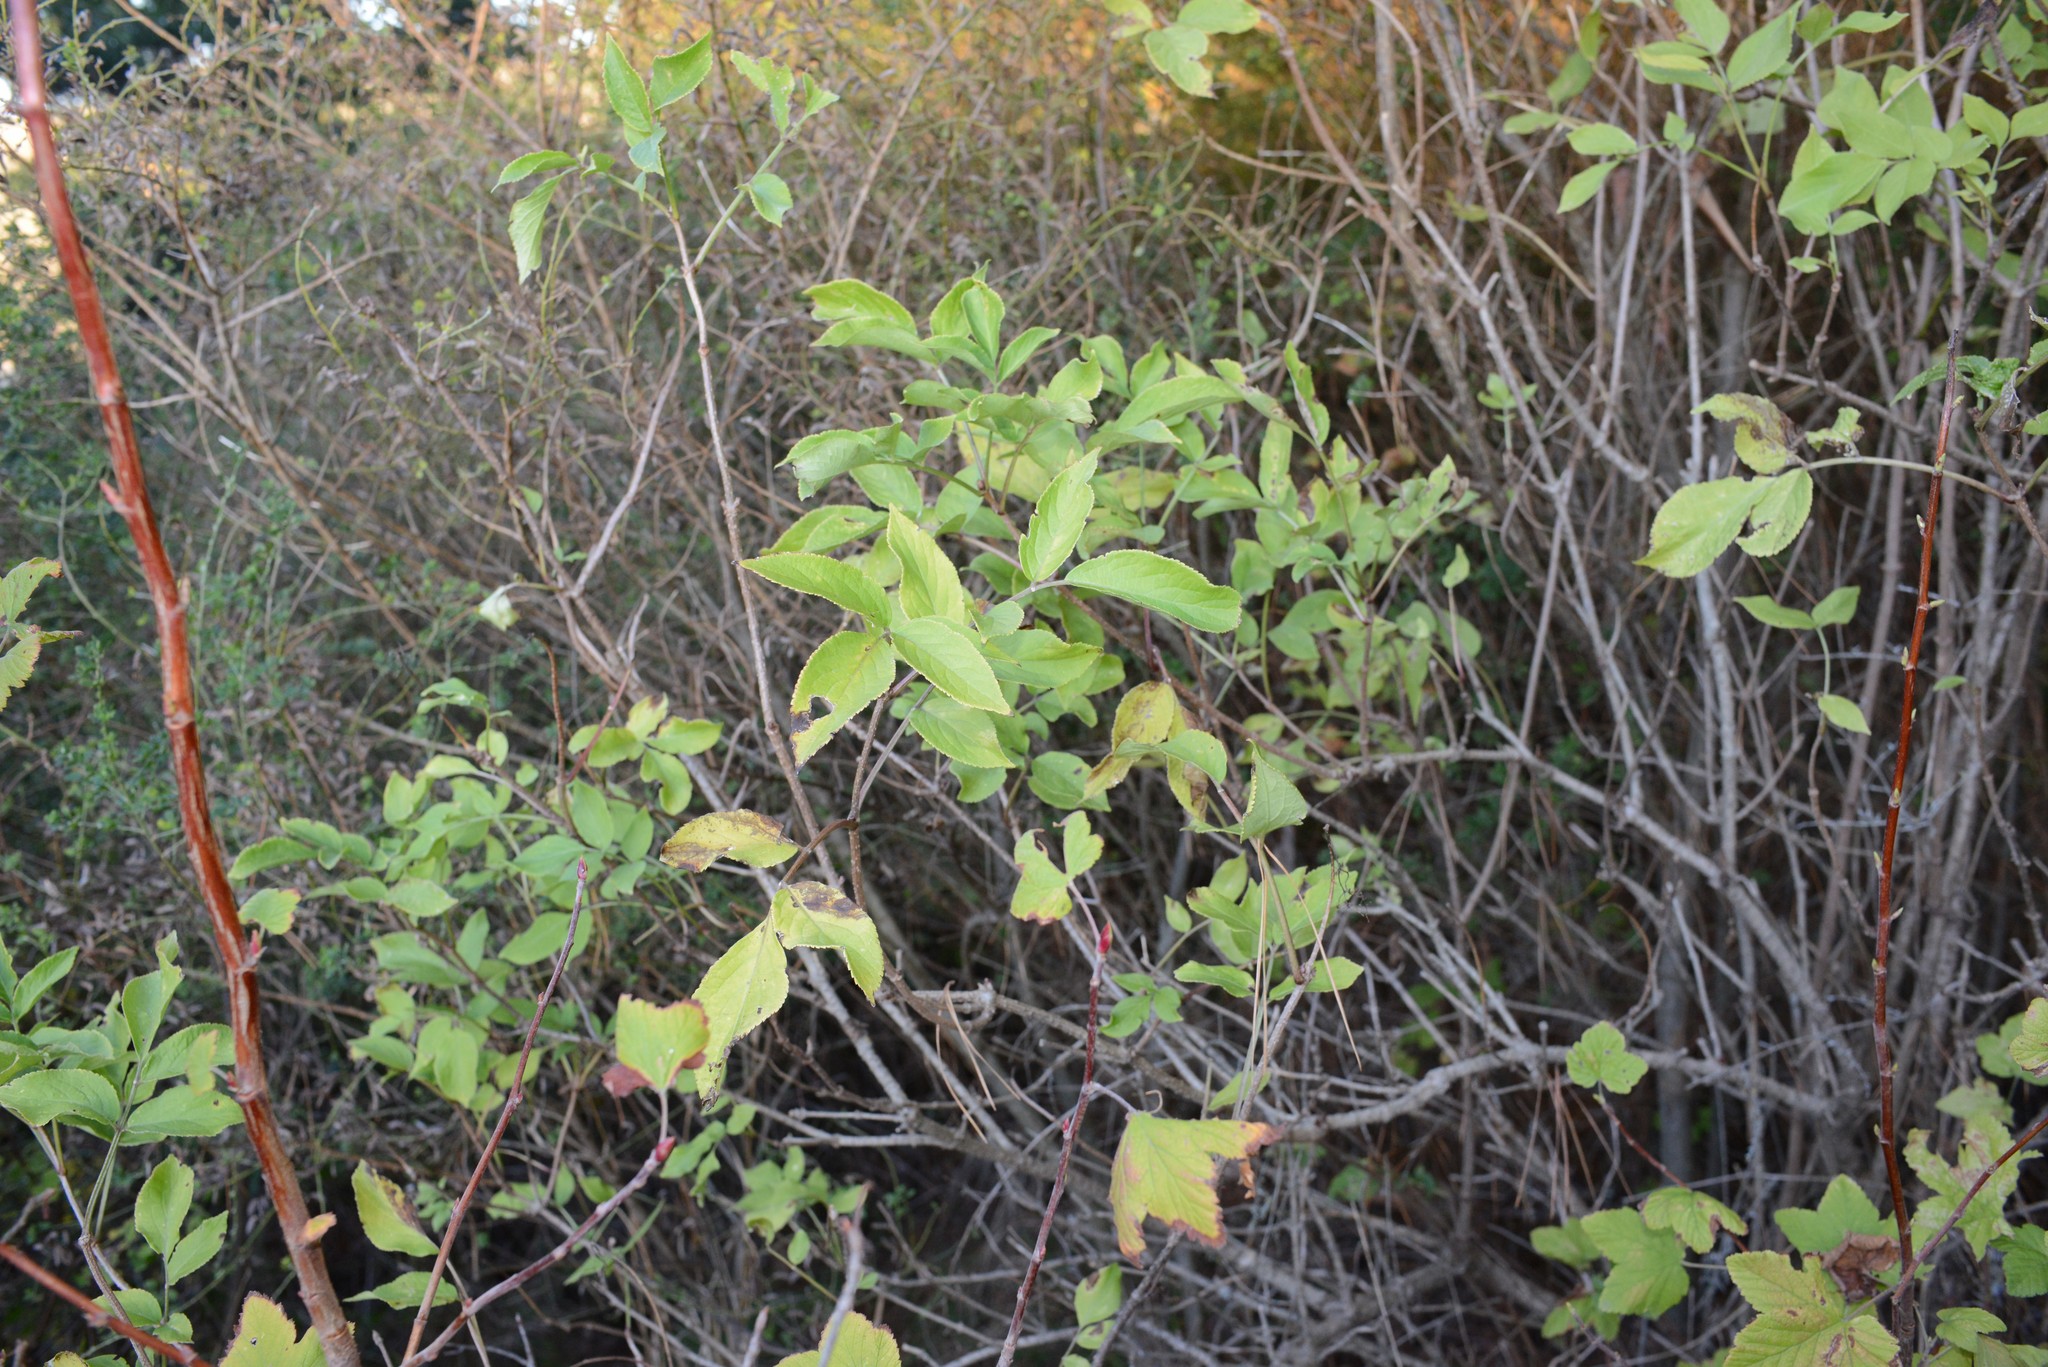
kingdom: Plantae
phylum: Tracheophyta
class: Magnoliopsida
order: Dipsacales
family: Viburnaceae
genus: Sambucus
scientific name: Sambucus nigra
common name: Elder
